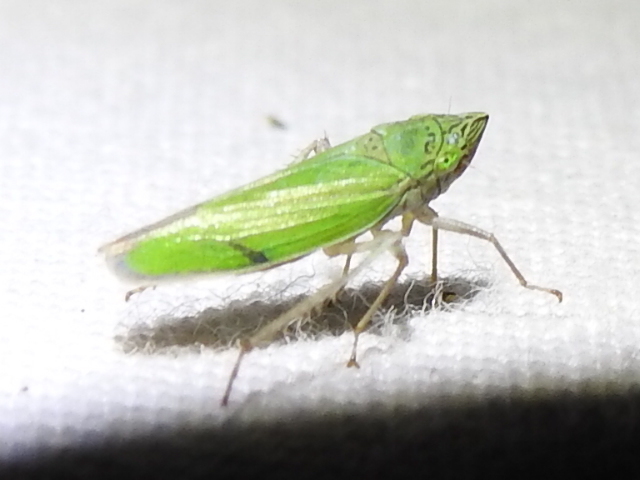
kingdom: Animalia
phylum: Arthropoda
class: Insecta
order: Hemiptera
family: Cicadellidae
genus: Draeculacephala
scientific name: Draeculacephala inscripta
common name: Leafhopper
